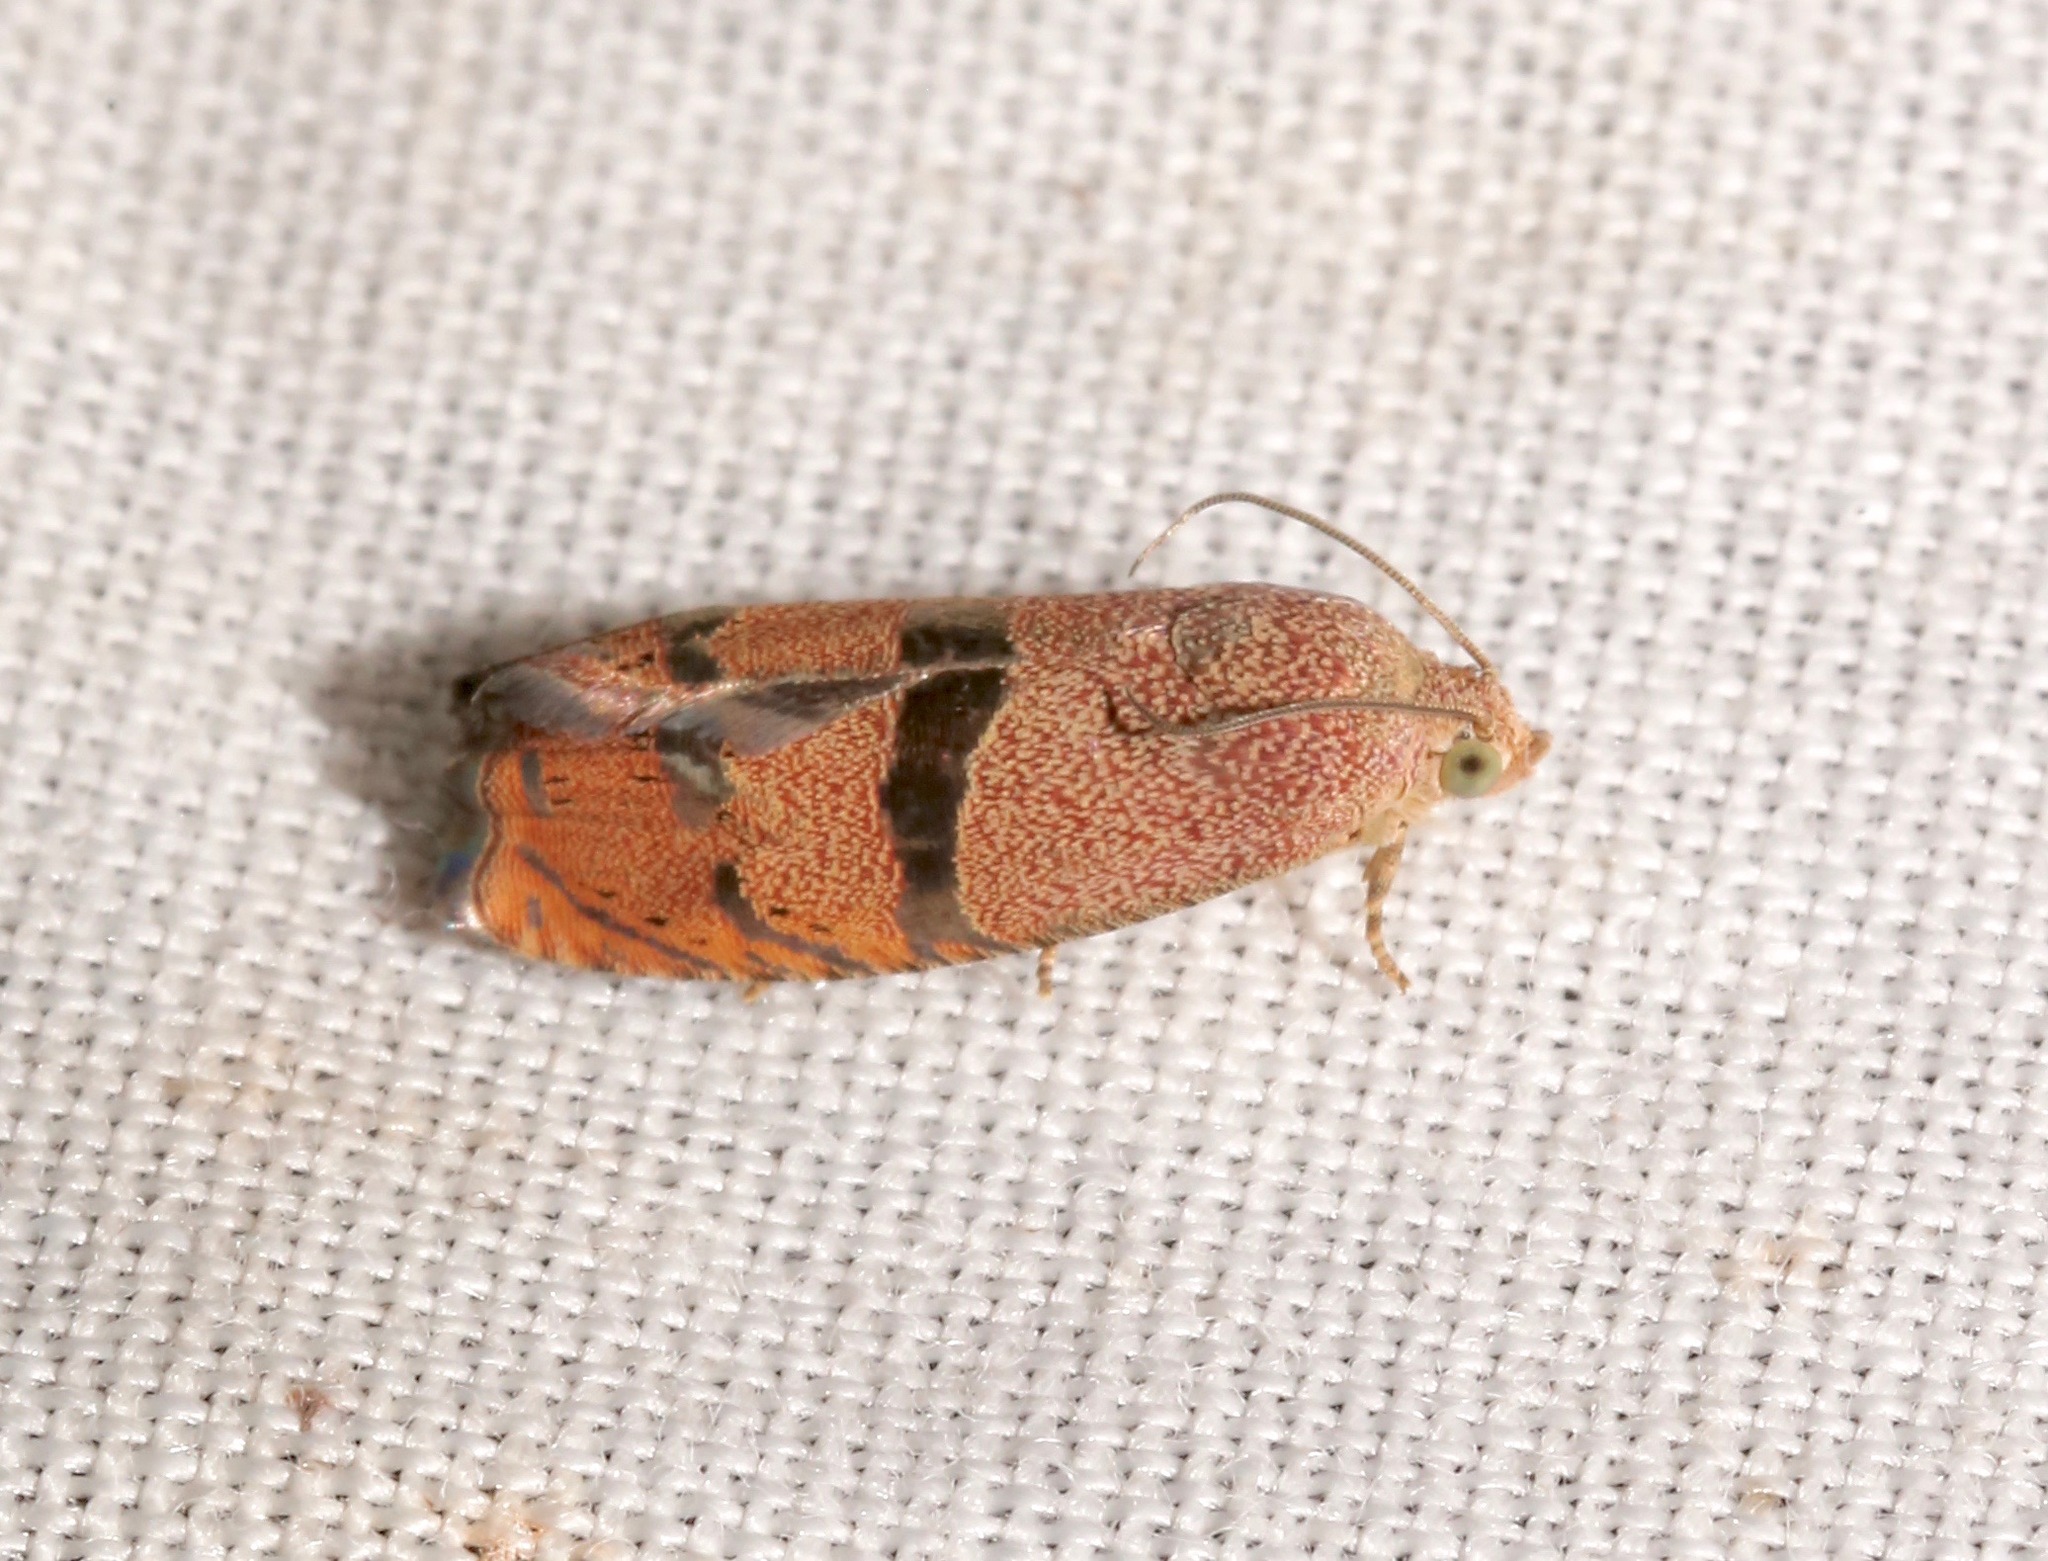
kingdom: Animalia
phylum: Arthropoda
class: Insecta
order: Lepidoptera
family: Tortricidae
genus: Cydia
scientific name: Cydia latiferreana
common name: Filbertworm moth
